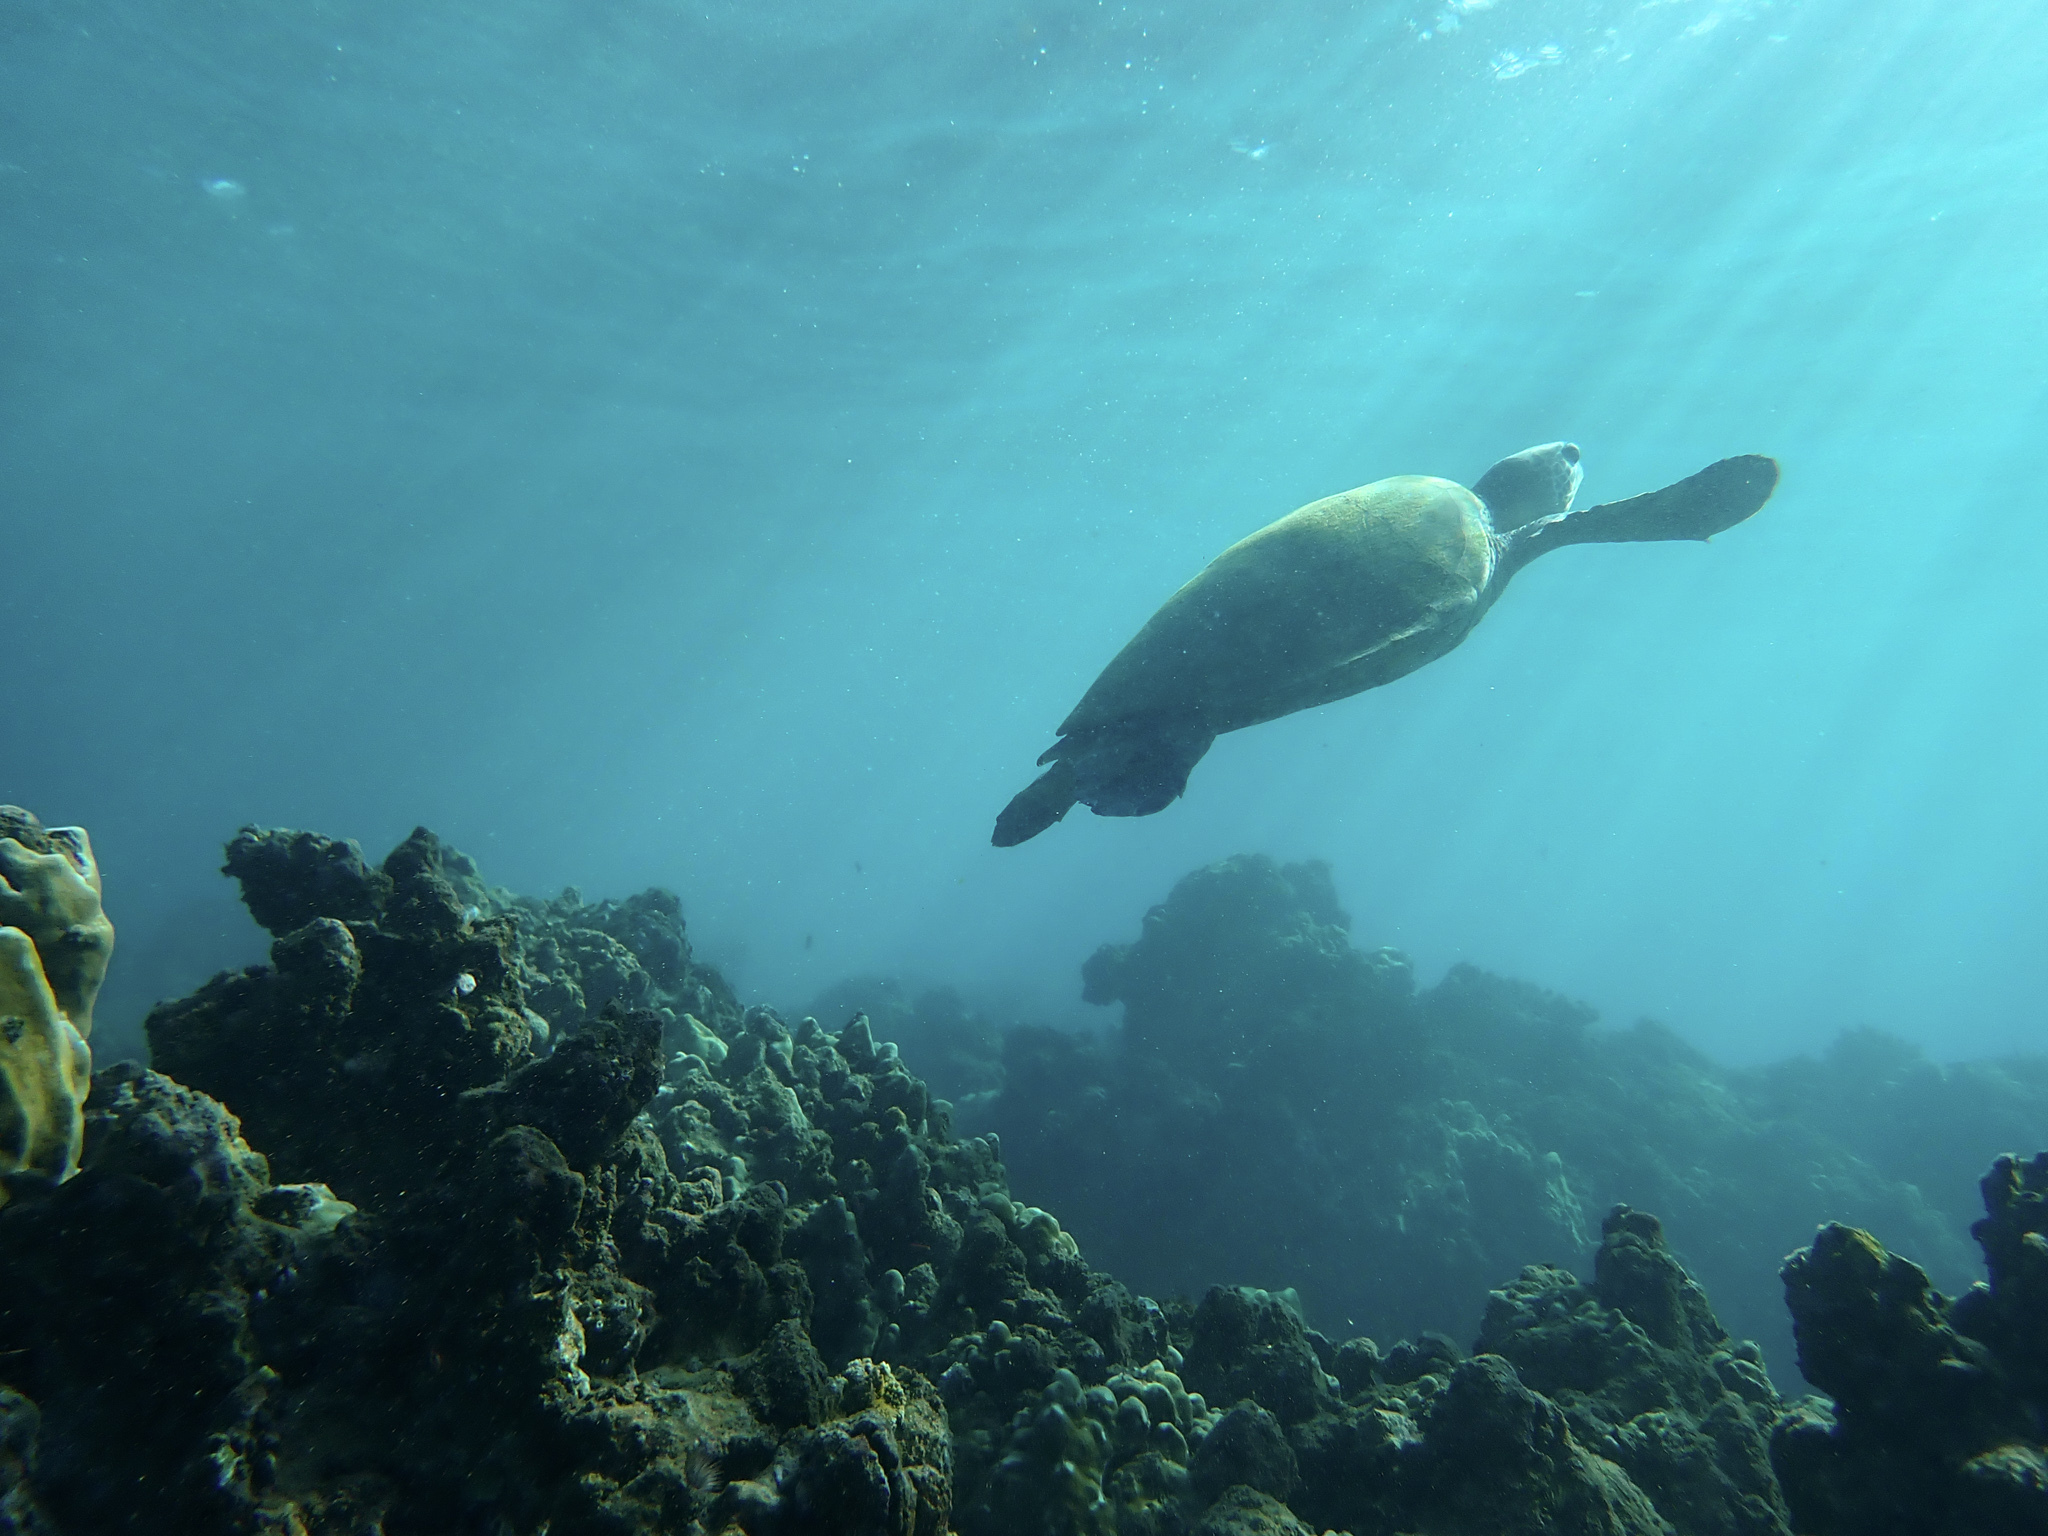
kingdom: Animalia
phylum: Chordata
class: Testudines
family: Cheloniidae
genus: Chelonia
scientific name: Chelonia mydas
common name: Green turtle
